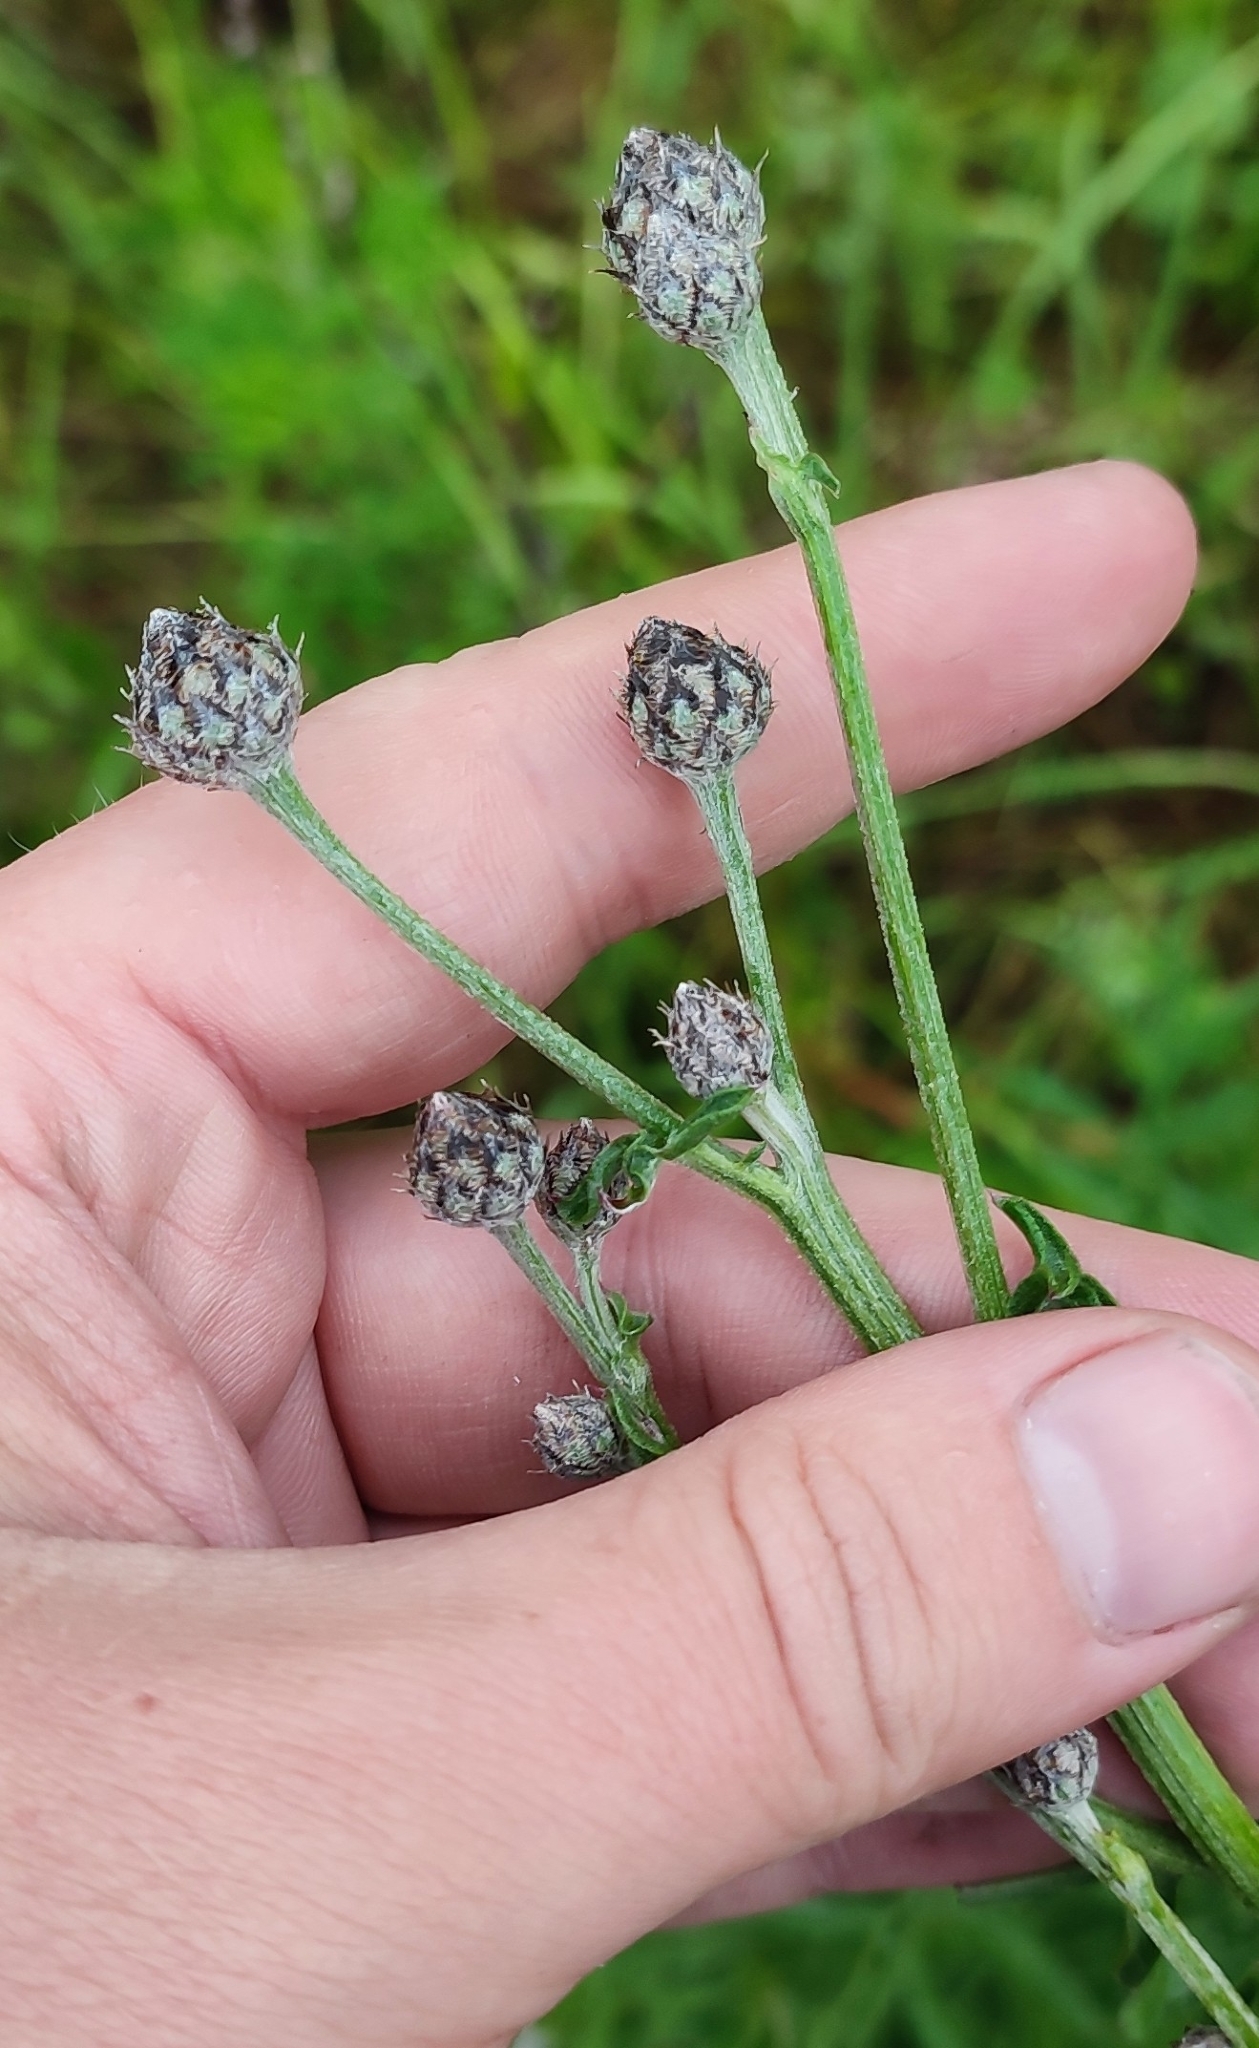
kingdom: Plantae
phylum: Tracheophyta
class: Magnoliopsida
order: Asterales
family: Asteraceae
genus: Centaurea
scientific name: Centaurea scabiosa
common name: Greater knapweed
